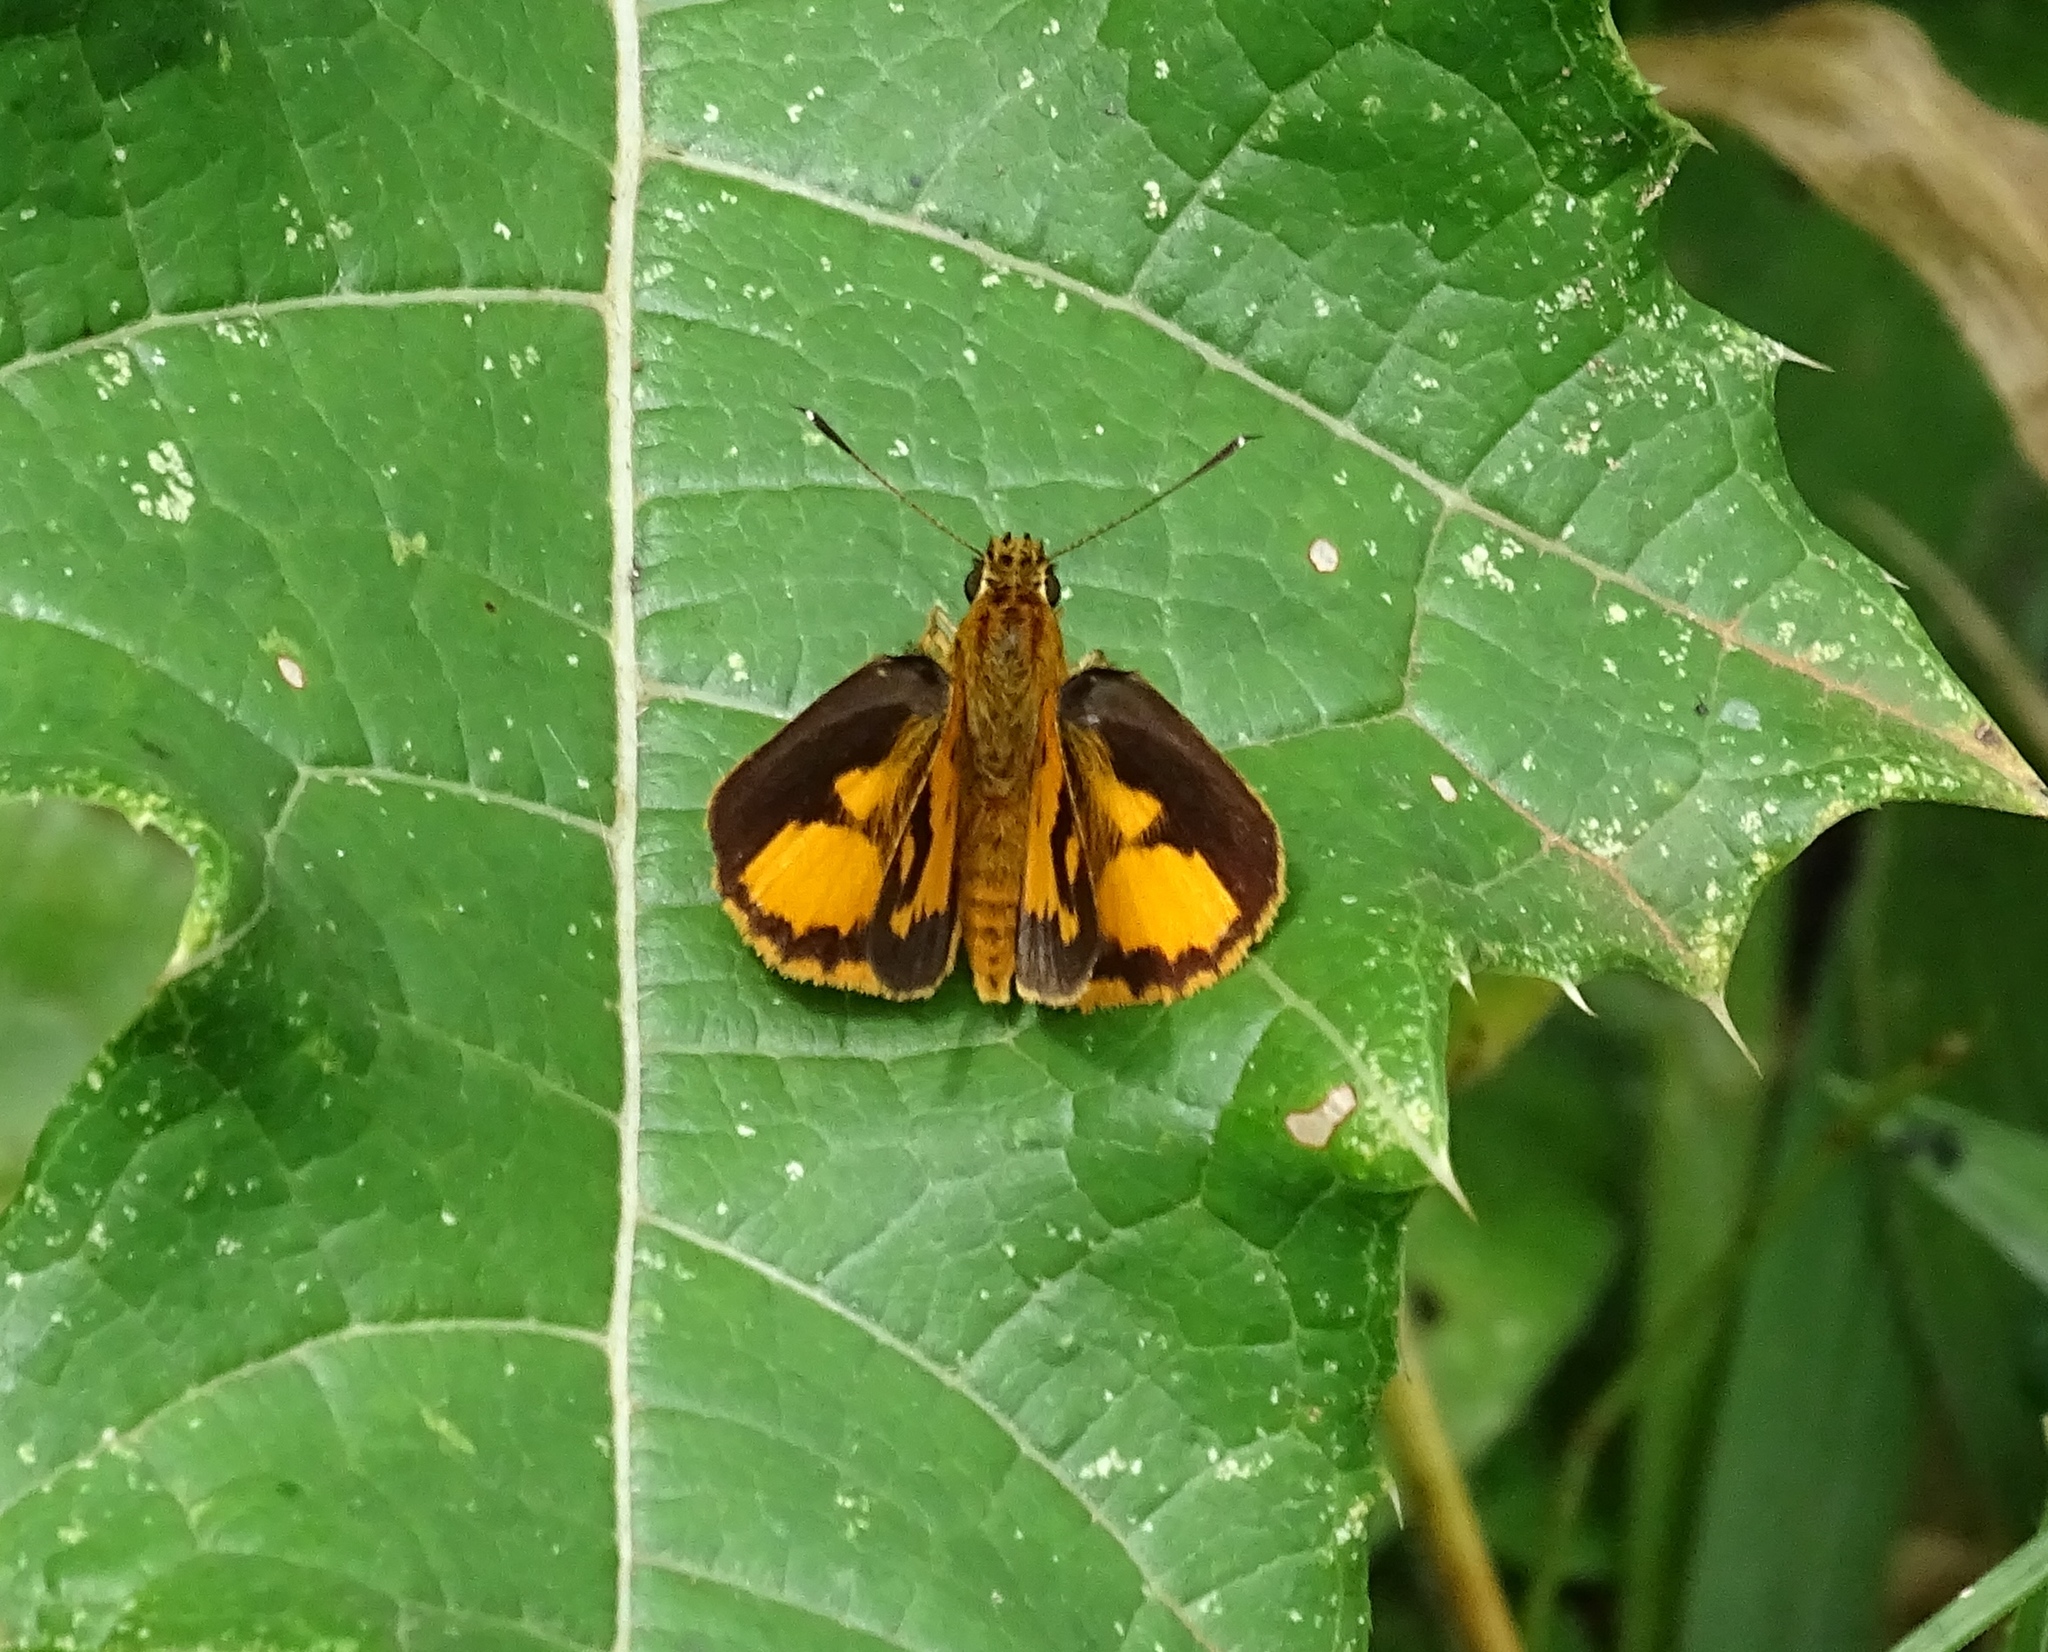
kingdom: Animalia
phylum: Arthropoda
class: Insecta
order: Lepidoptera
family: Hesperiidae
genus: Pardaleodes
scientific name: Pardaleodes incerta
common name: Savanna pathfinder
